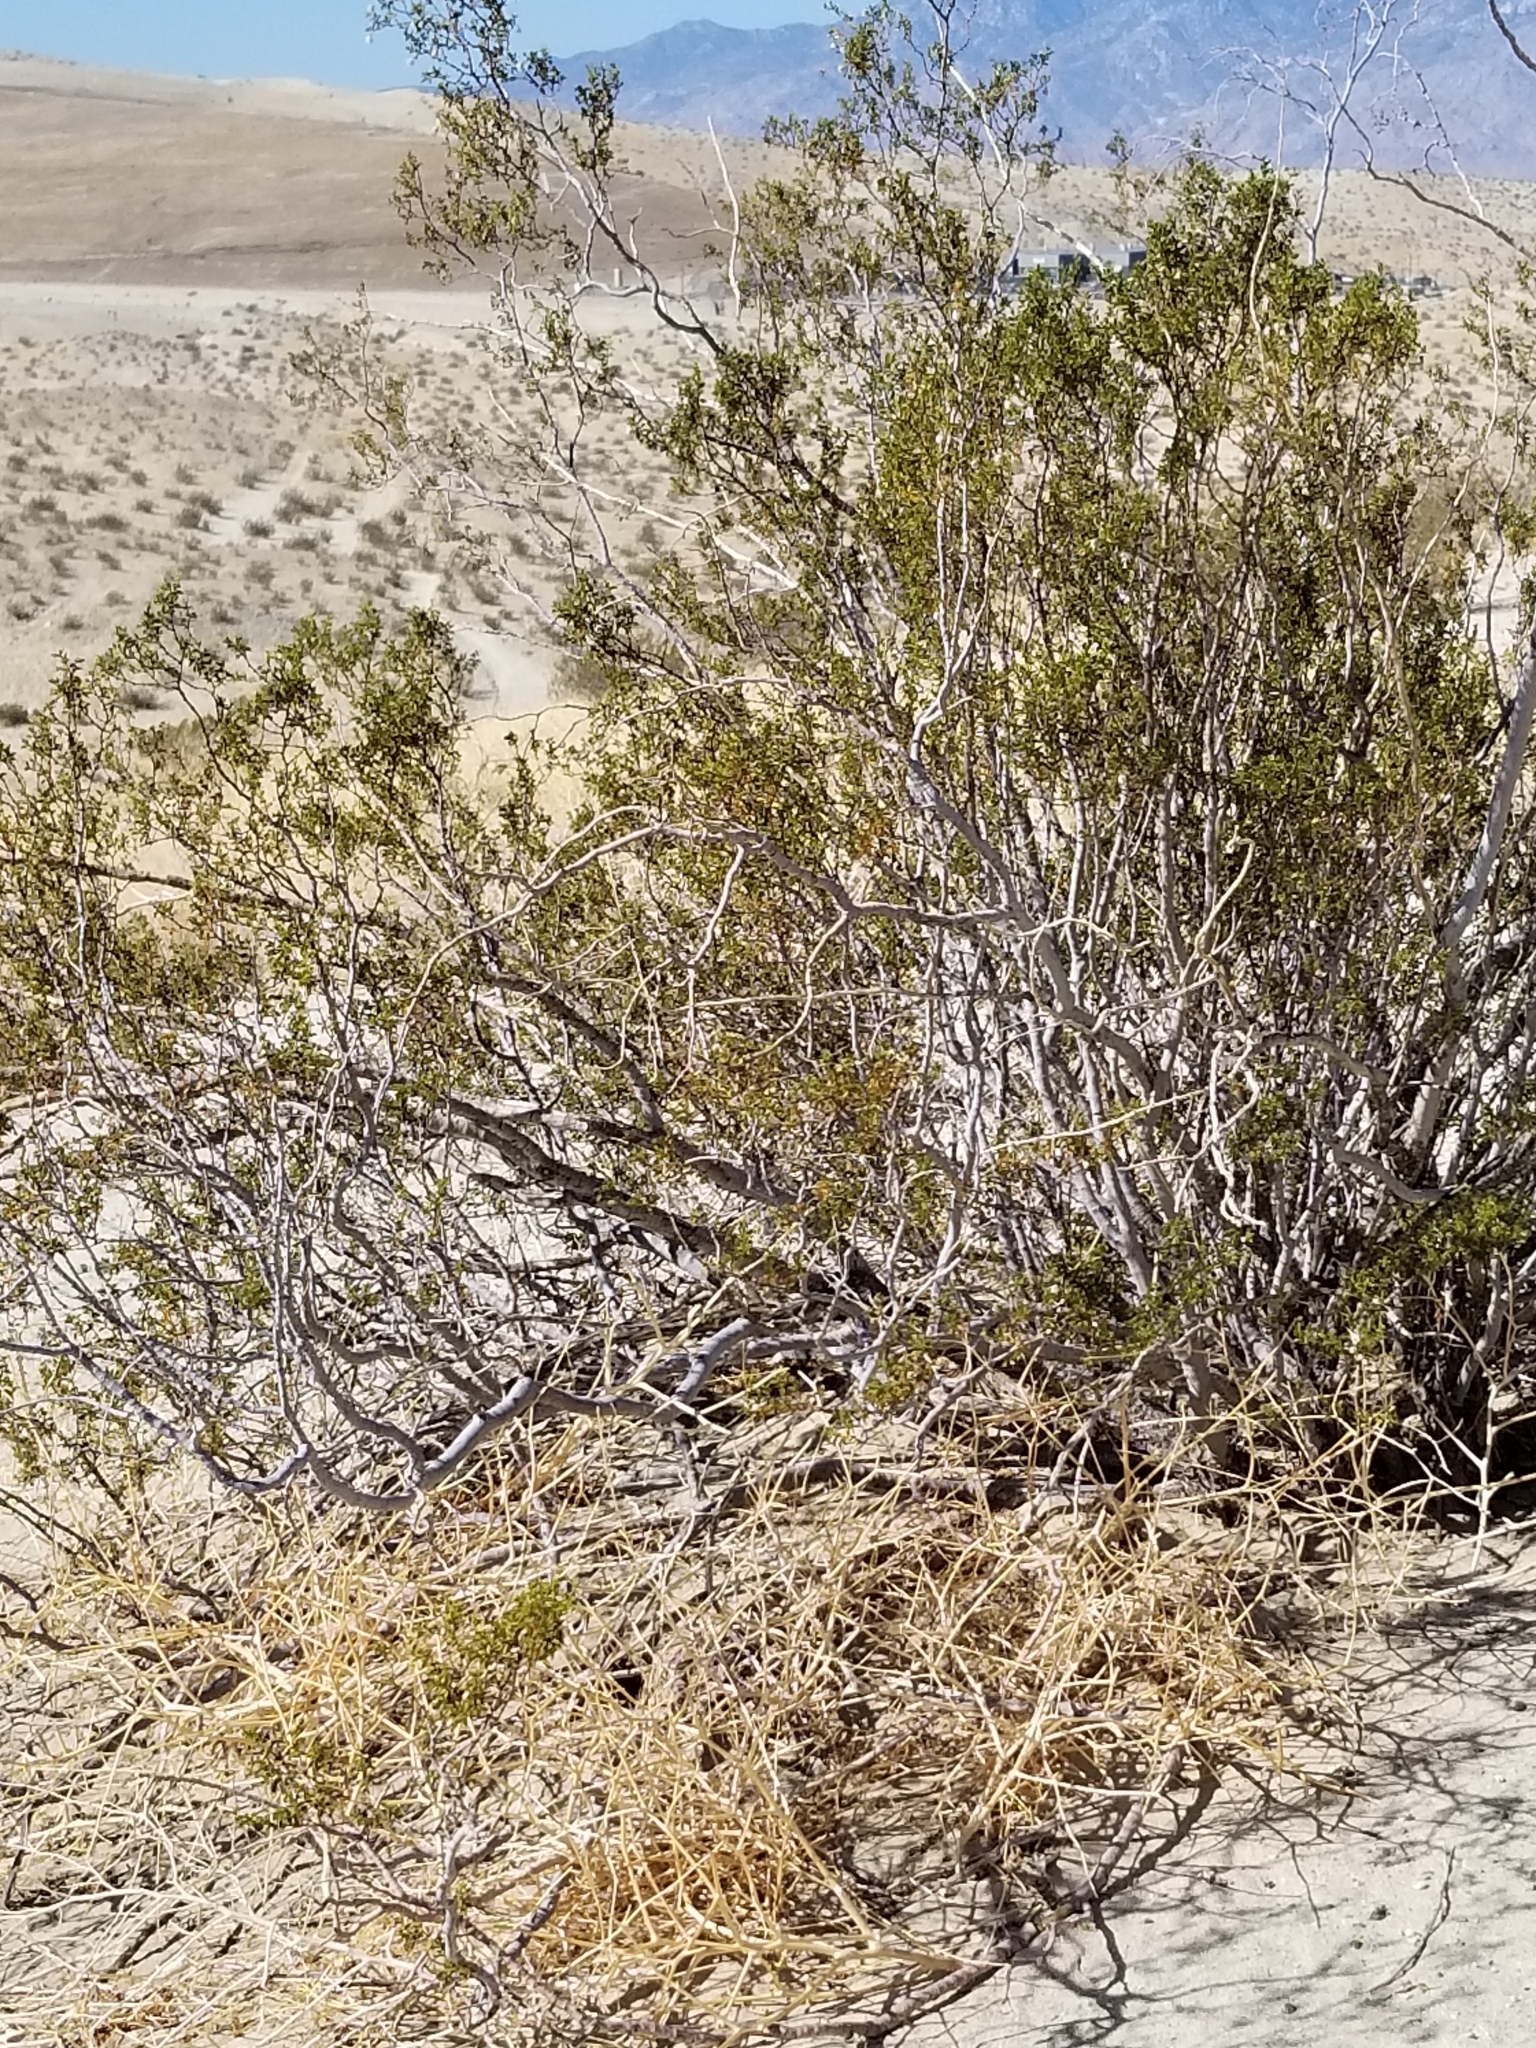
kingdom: Plantae
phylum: Tracheophyta
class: Magnoliopsida
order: Zygophyllales
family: Zygophyllaceae
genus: Larrea
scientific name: Larrea tridentata
